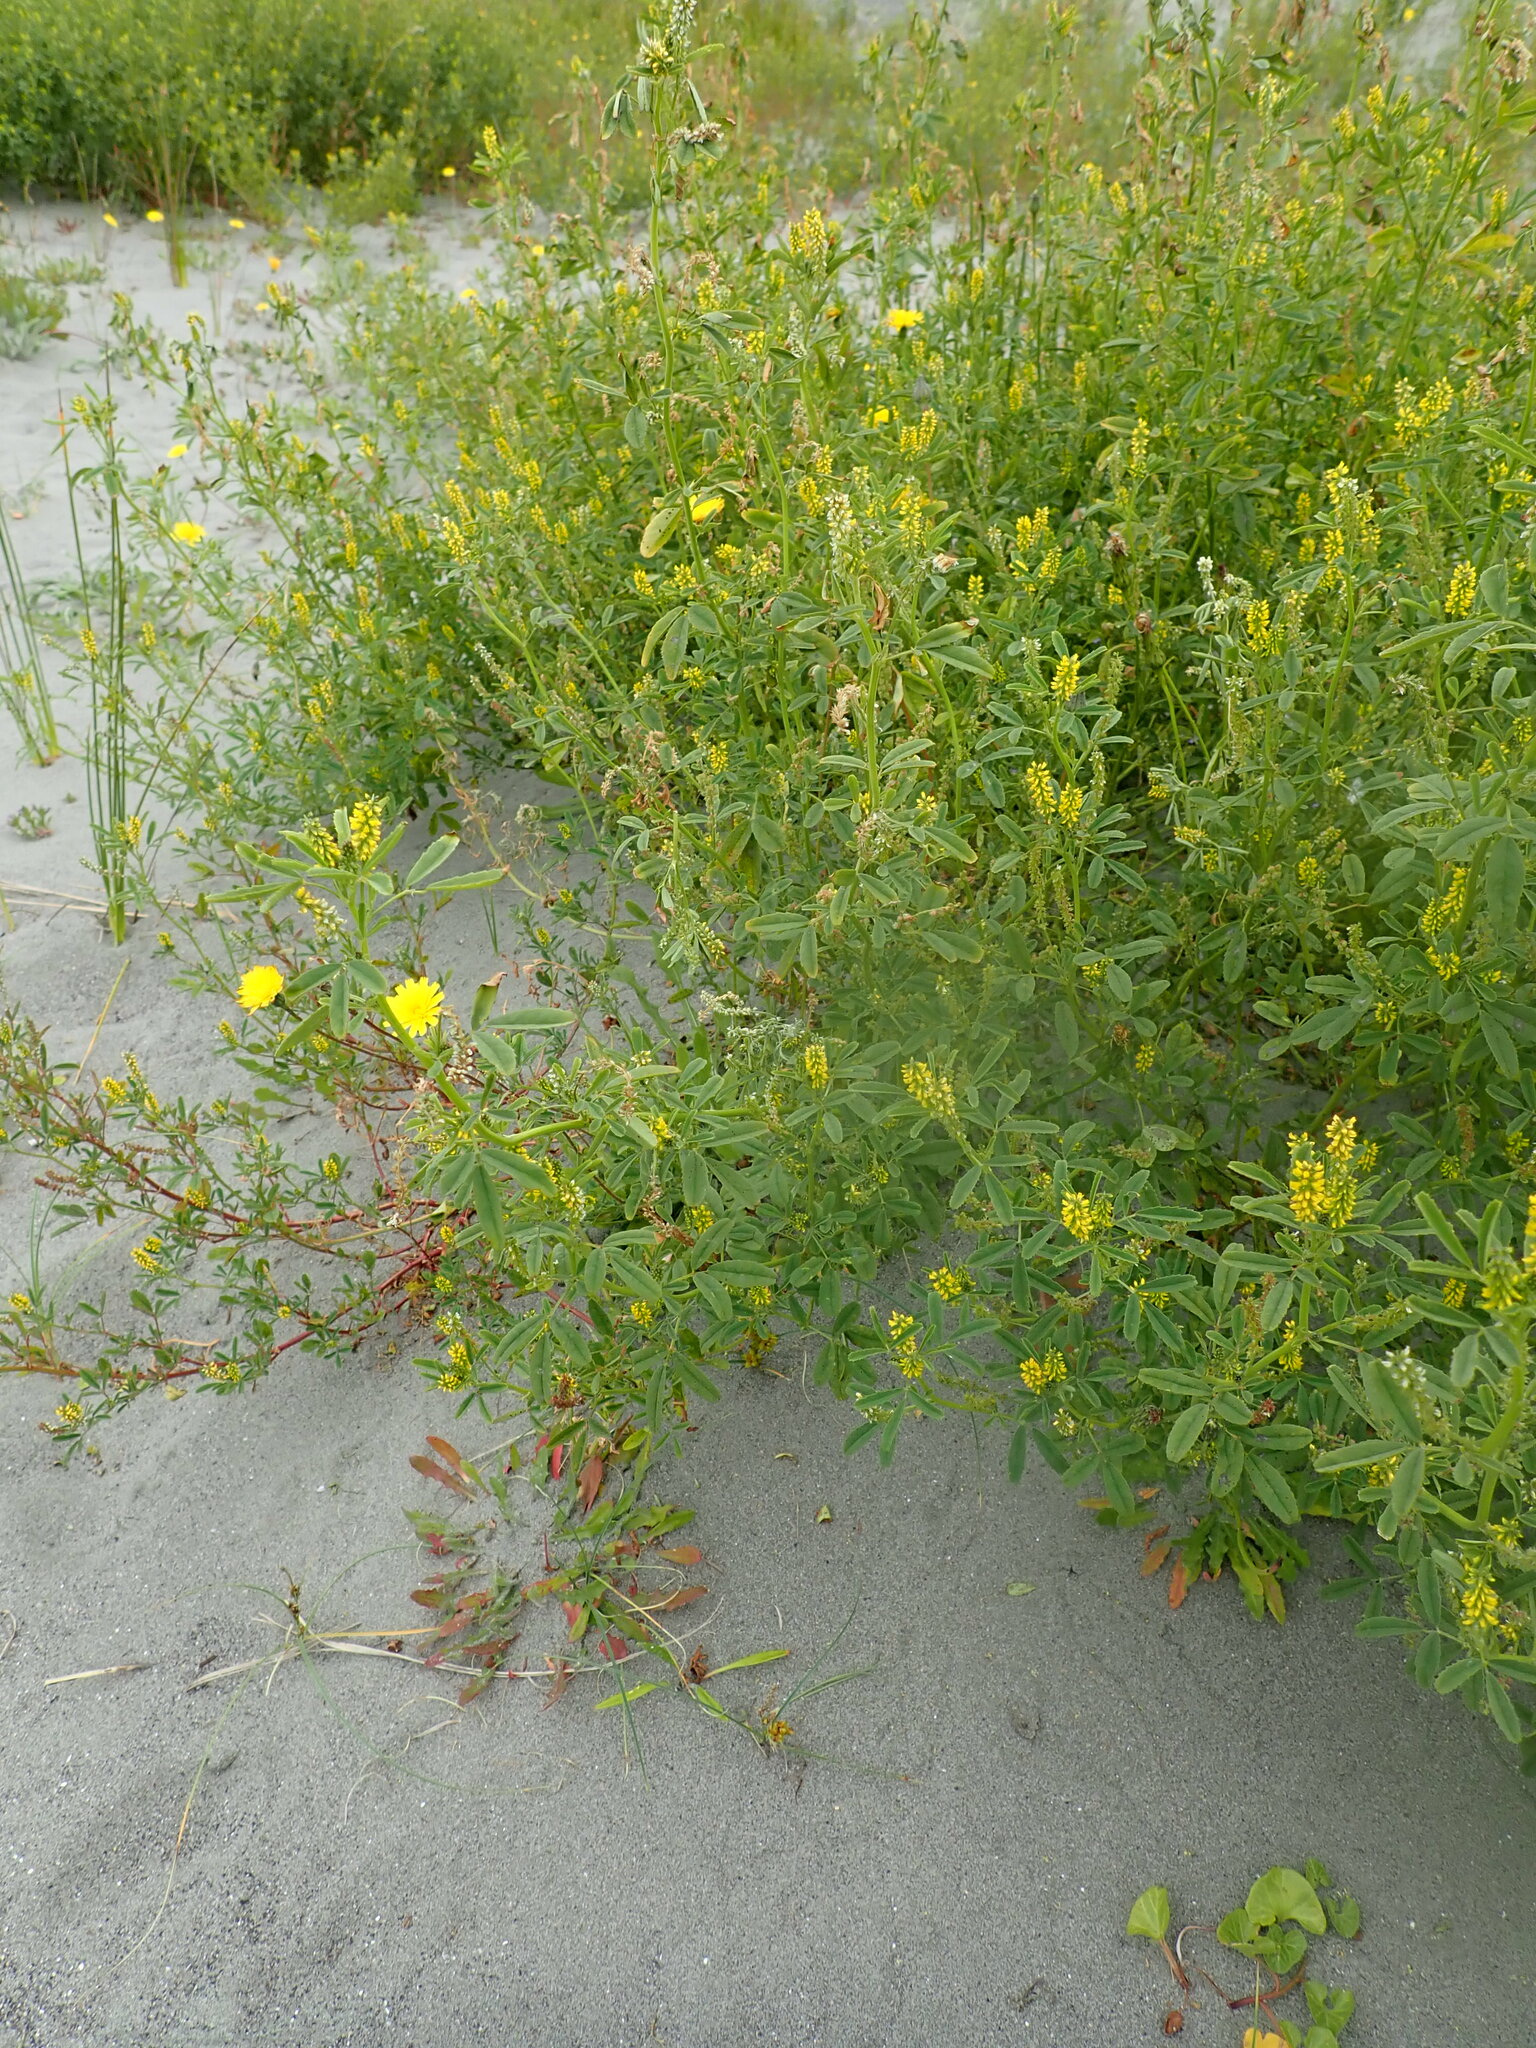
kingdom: Plantae
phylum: Tracheophyta
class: Magnoliopsida
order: Fabales
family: Fabaceae
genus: Melilotus
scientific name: Melilotus indicus
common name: Small melilot
